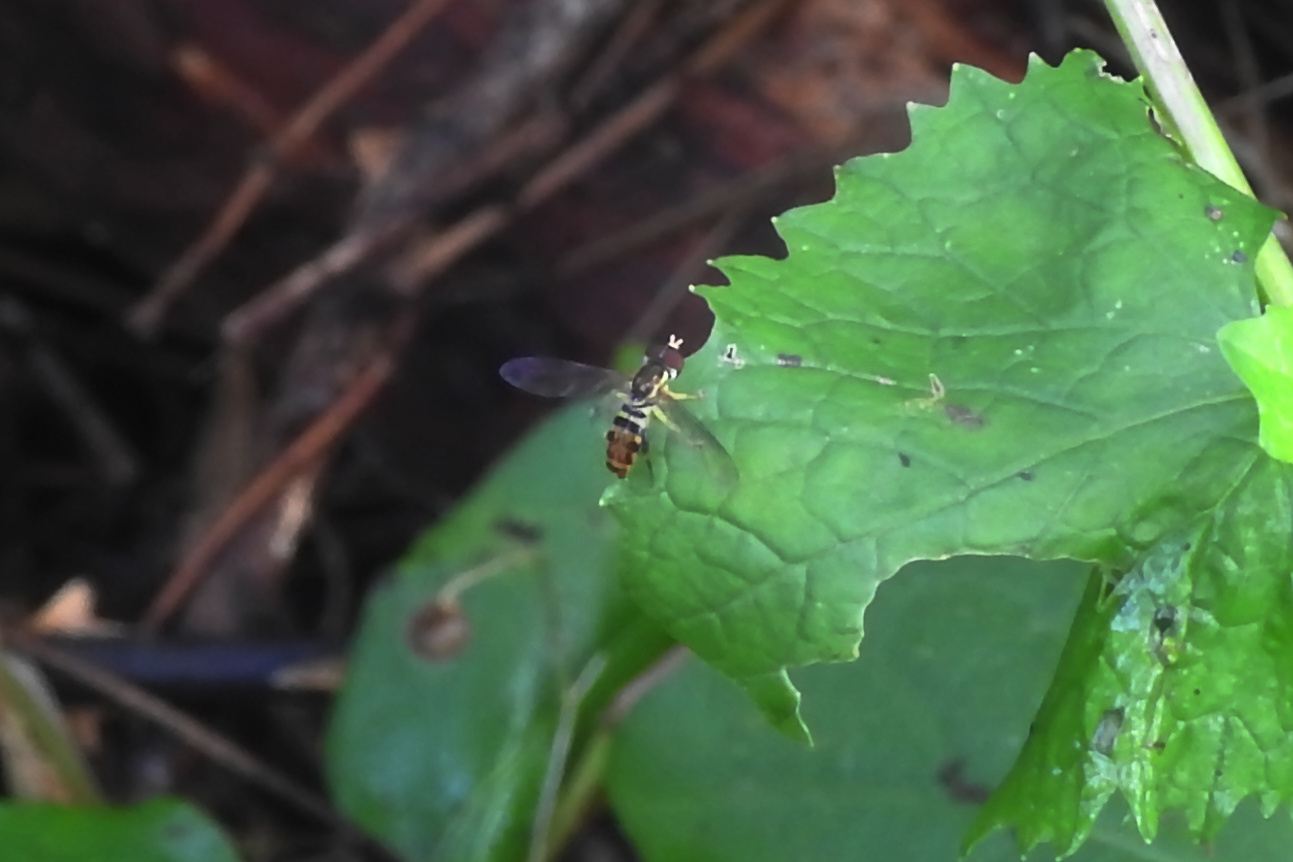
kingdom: Animalia
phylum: Arthropoda
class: Insecta
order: Diptera
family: Syrphidae
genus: Toxomerus
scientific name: Toxomerus geminatus
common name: Eastern calligrapher
